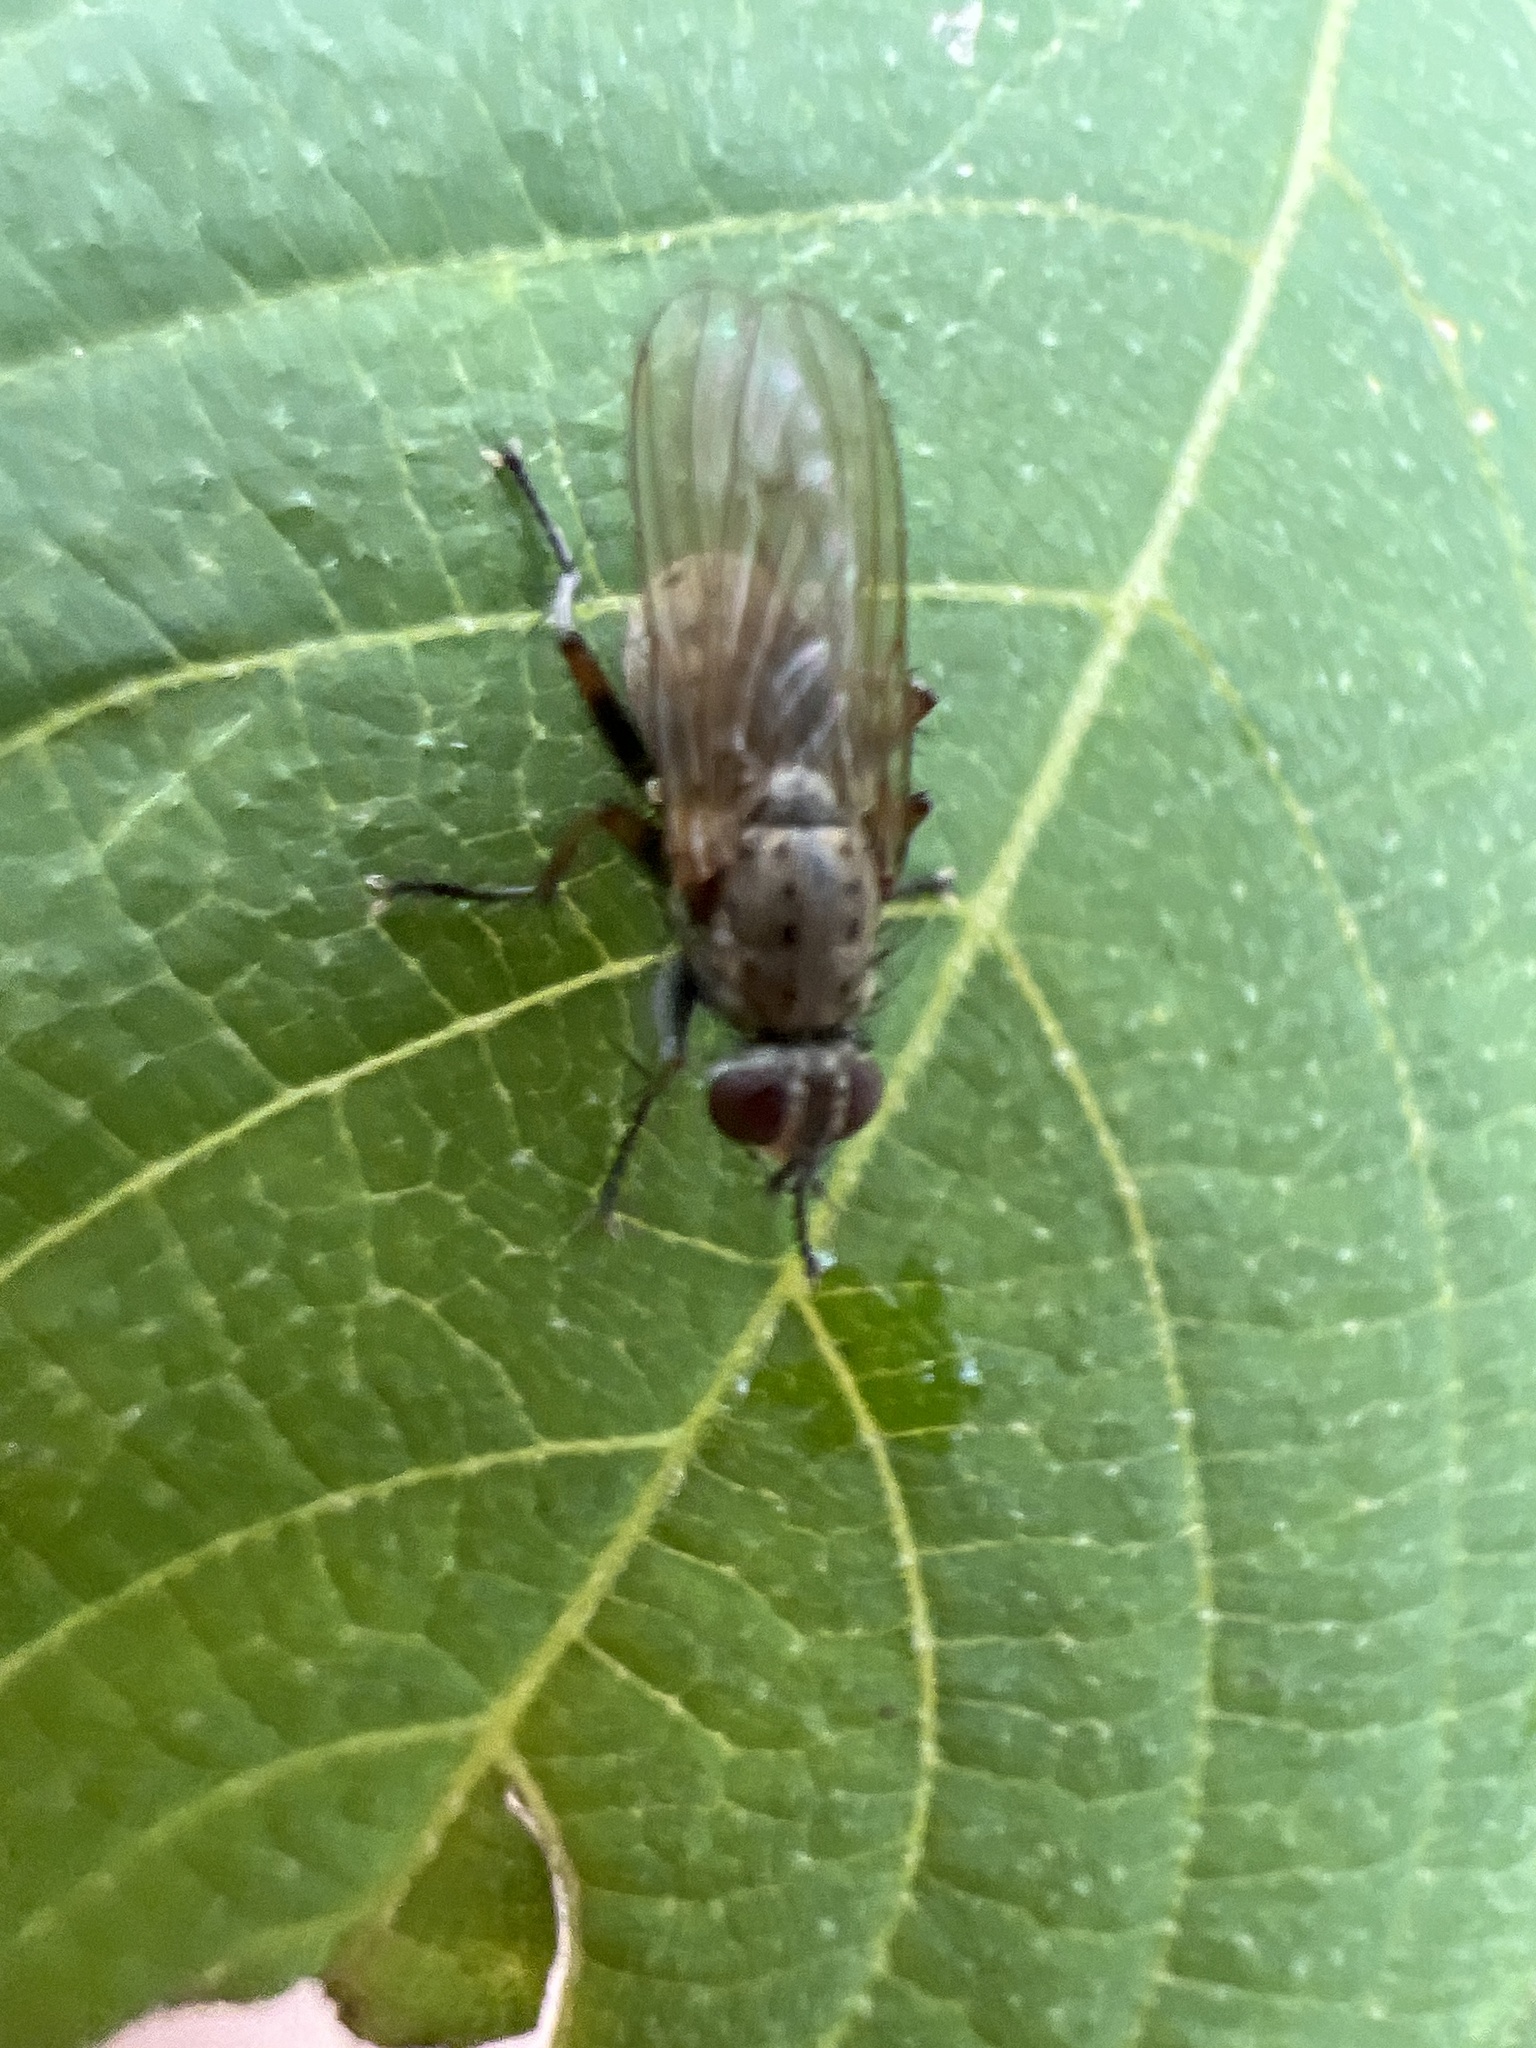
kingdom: Animalia
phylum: Arthropoda
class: Insecta
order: Diptera
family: Muscidae
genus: Coenosia
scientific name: Coenosia tigrina
